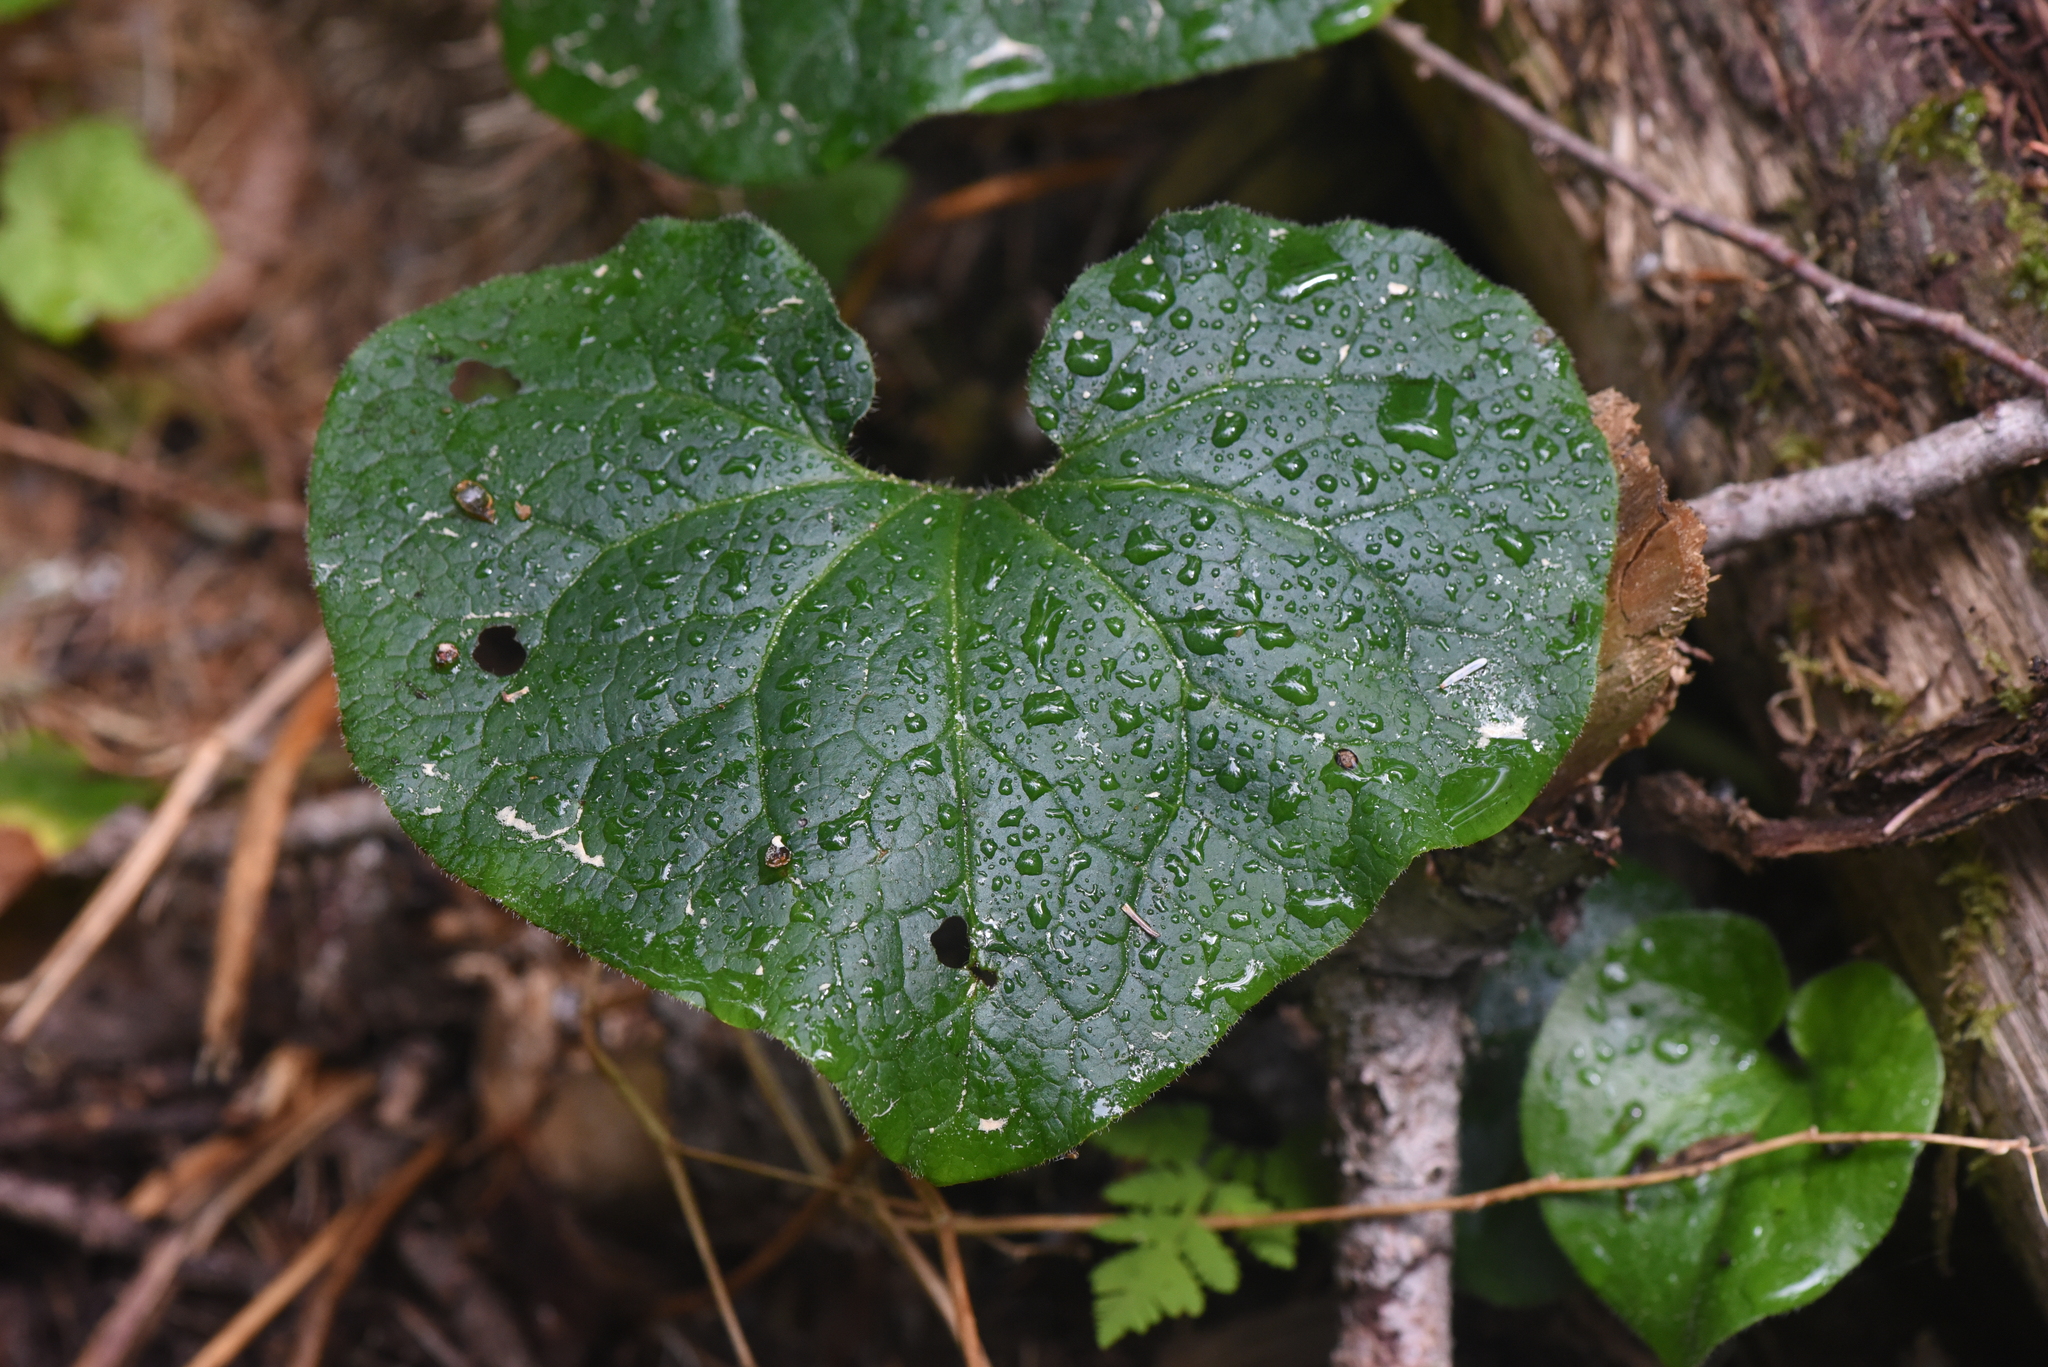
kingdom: Plantae
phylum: Tracheophyta
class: Magnoliopsida
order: Piperales
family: Aristolochiaceae
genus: Asarum
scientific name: Asarum caudatum
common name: Wild ginger
